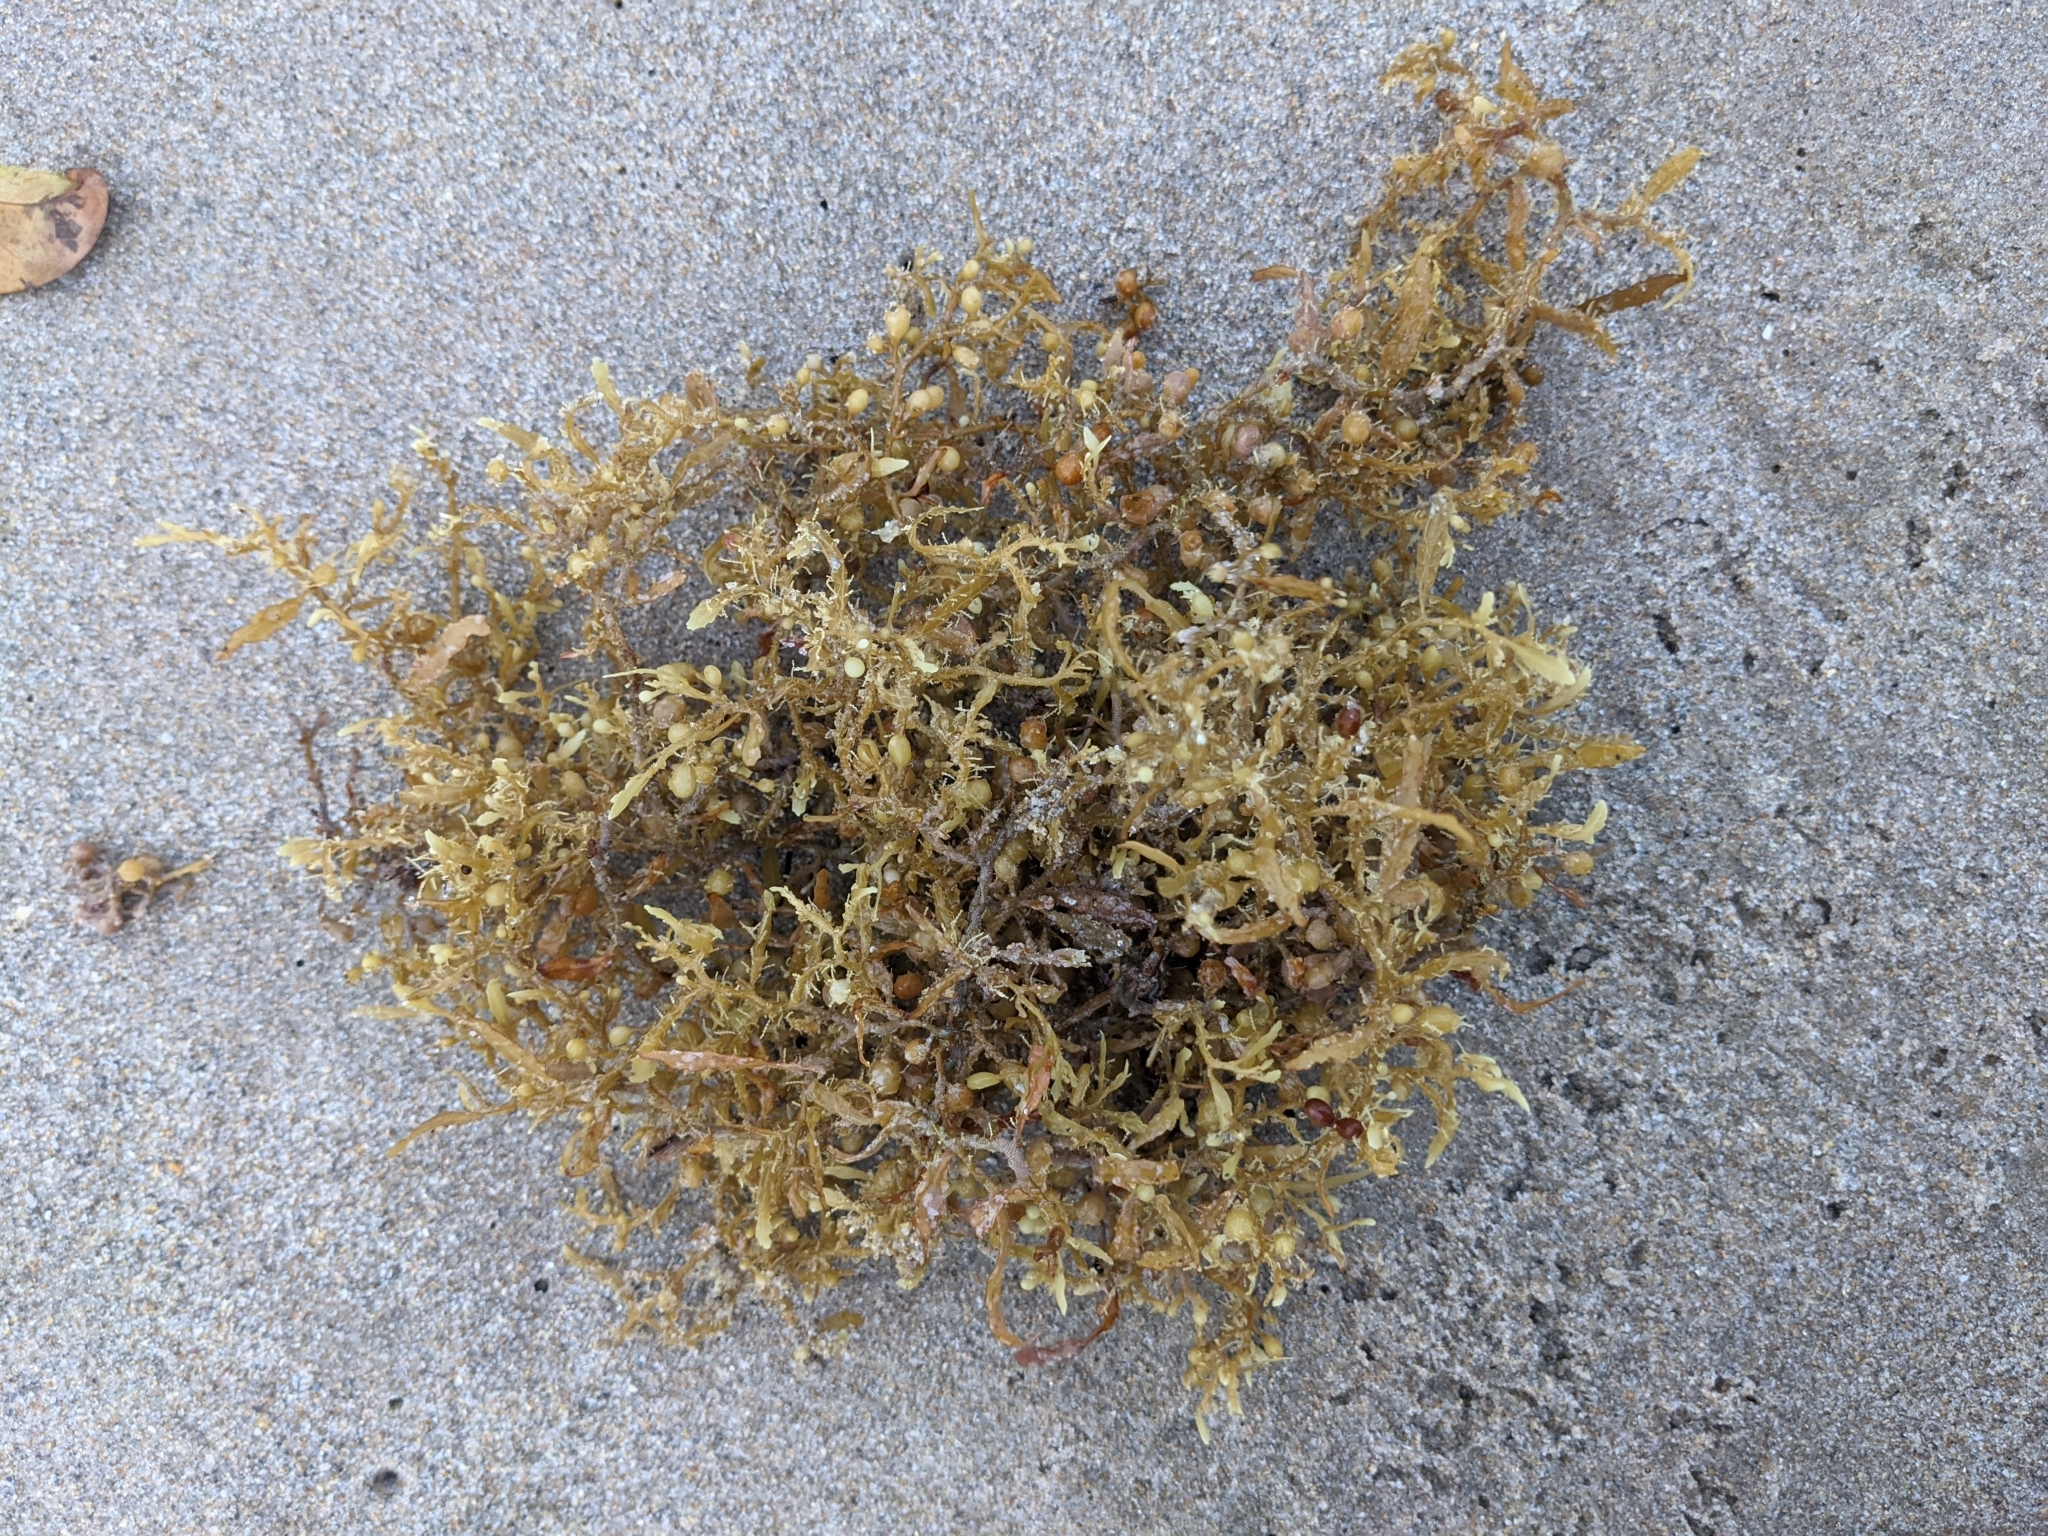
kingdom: Chromista
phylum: Ochrophyta
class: Phaeophyceae
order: Fucales
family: Sargassaceae
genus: Sargassum
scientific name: Sargassum fluitans
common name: Sargassum seaweed
